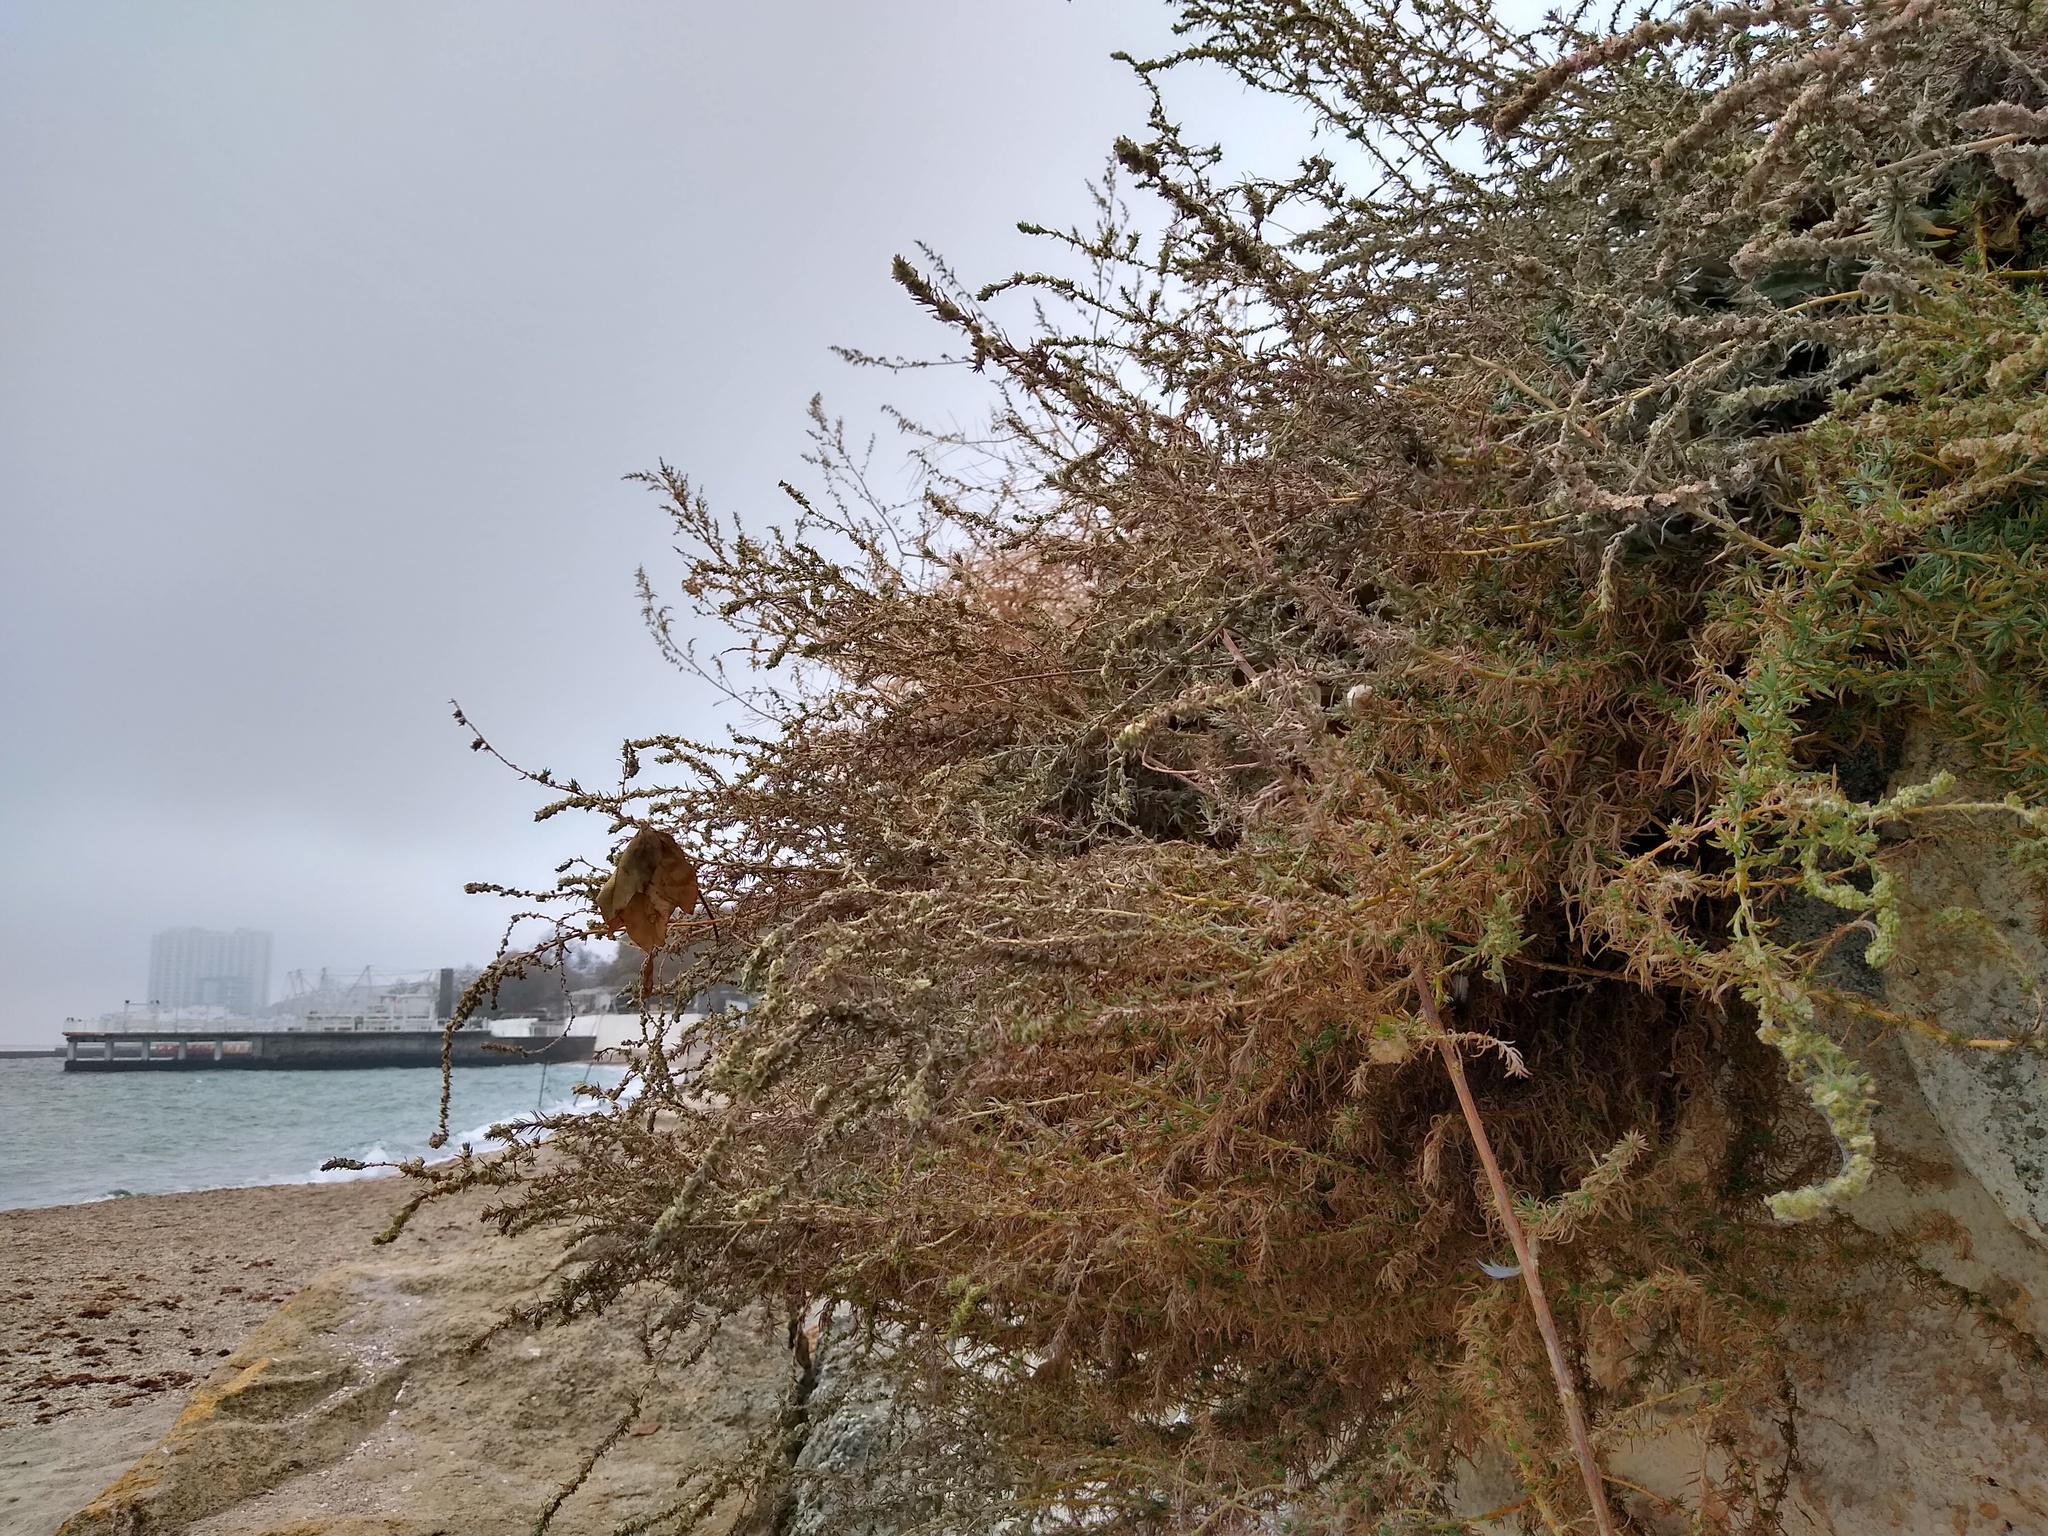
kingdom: Plantae
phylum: Tracheophyta
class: Magnoliopsida
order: Caryophyllales
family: Amaranthaceae
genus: Bassia
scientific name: Bassia prostrata
